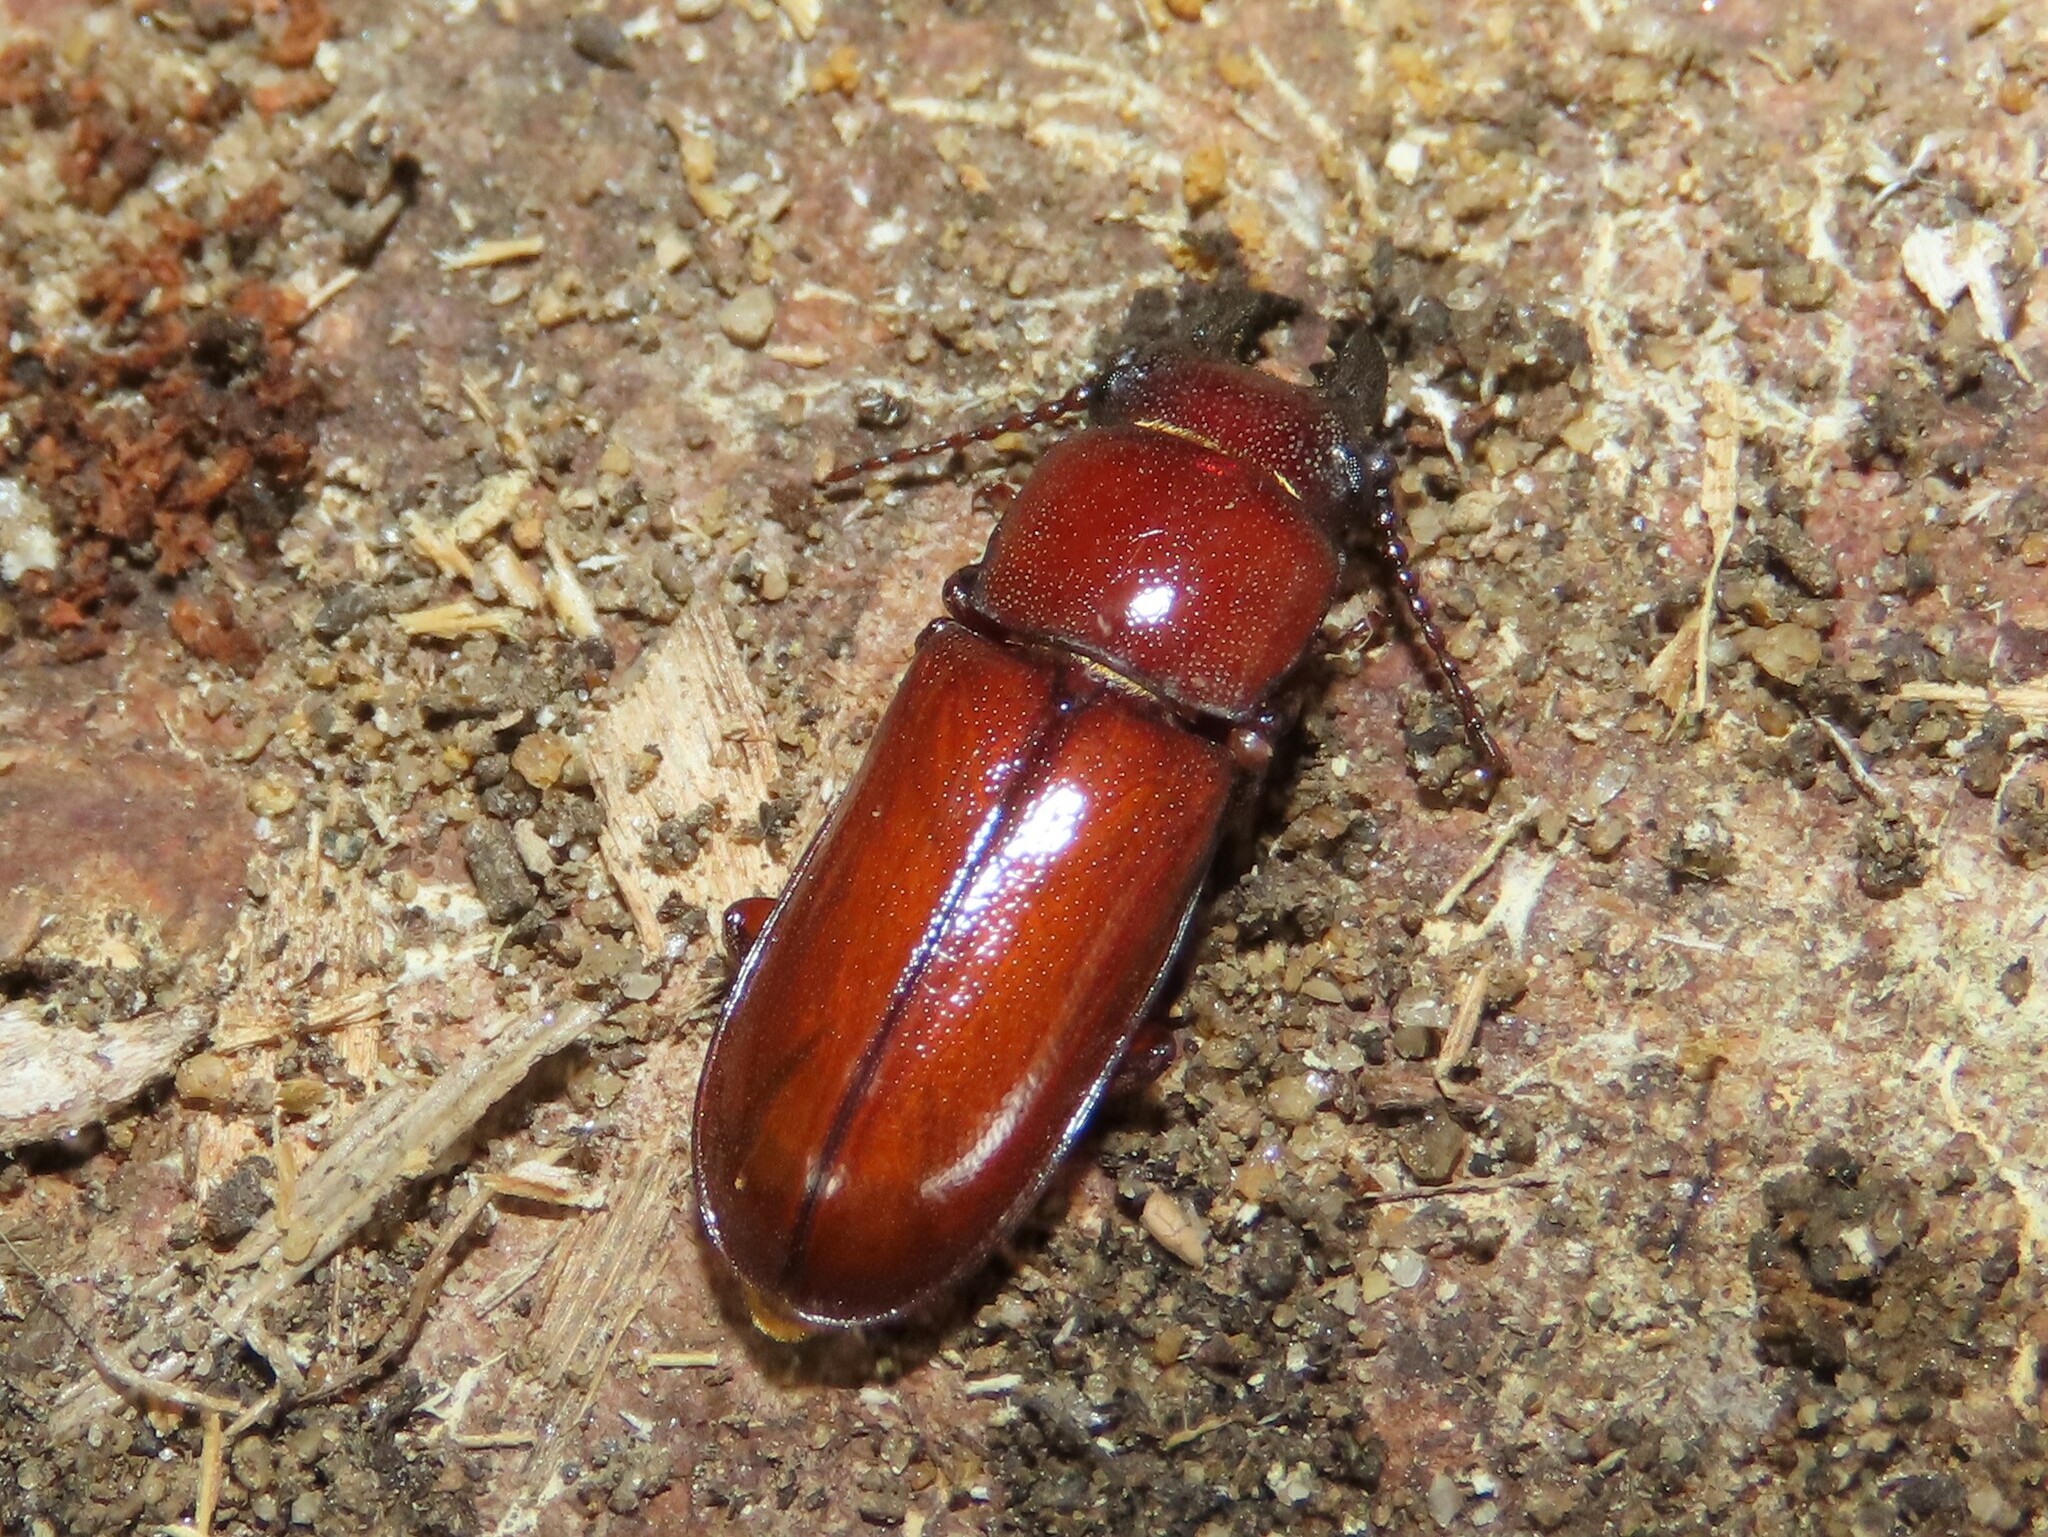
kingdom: Animalia
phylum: Arthropoda
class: Insecta
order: Coleoptera
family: Cerambycidae
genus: Neandra
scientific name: Neandra brunnea
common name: Pole borer
